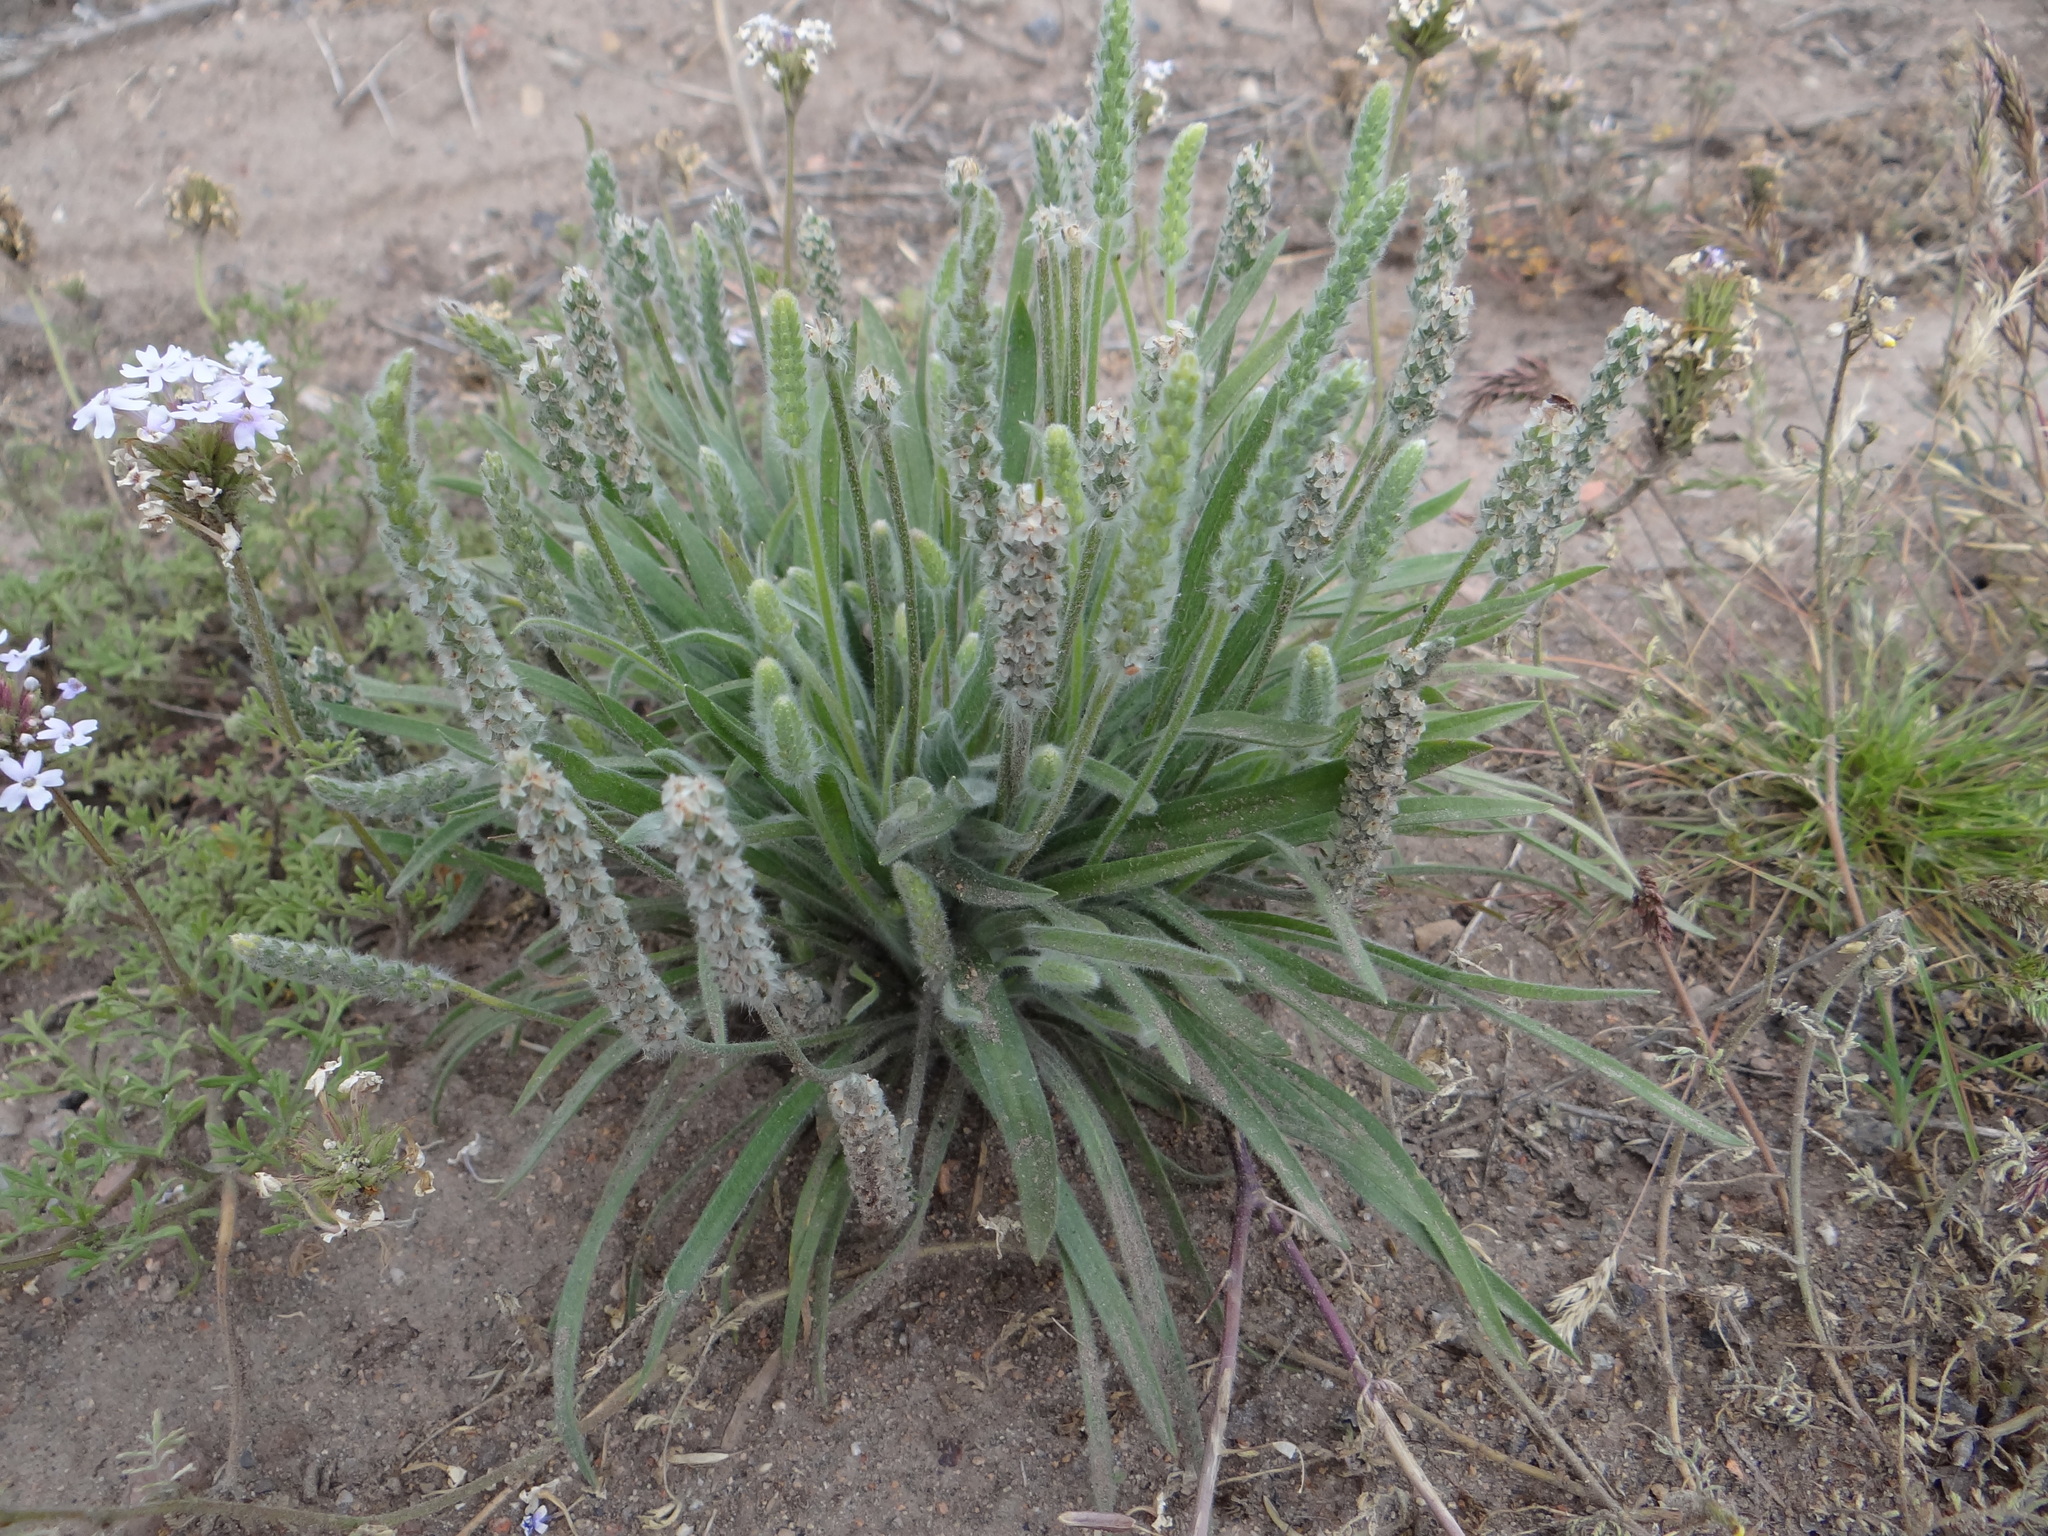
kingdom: Plantae
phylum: Tracheophyta
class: Magnoliopsida
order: Lamiales
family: Plantaginaceae
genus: Plantago
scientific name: Plantago patagonica
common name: Patagonia indian-wheat
